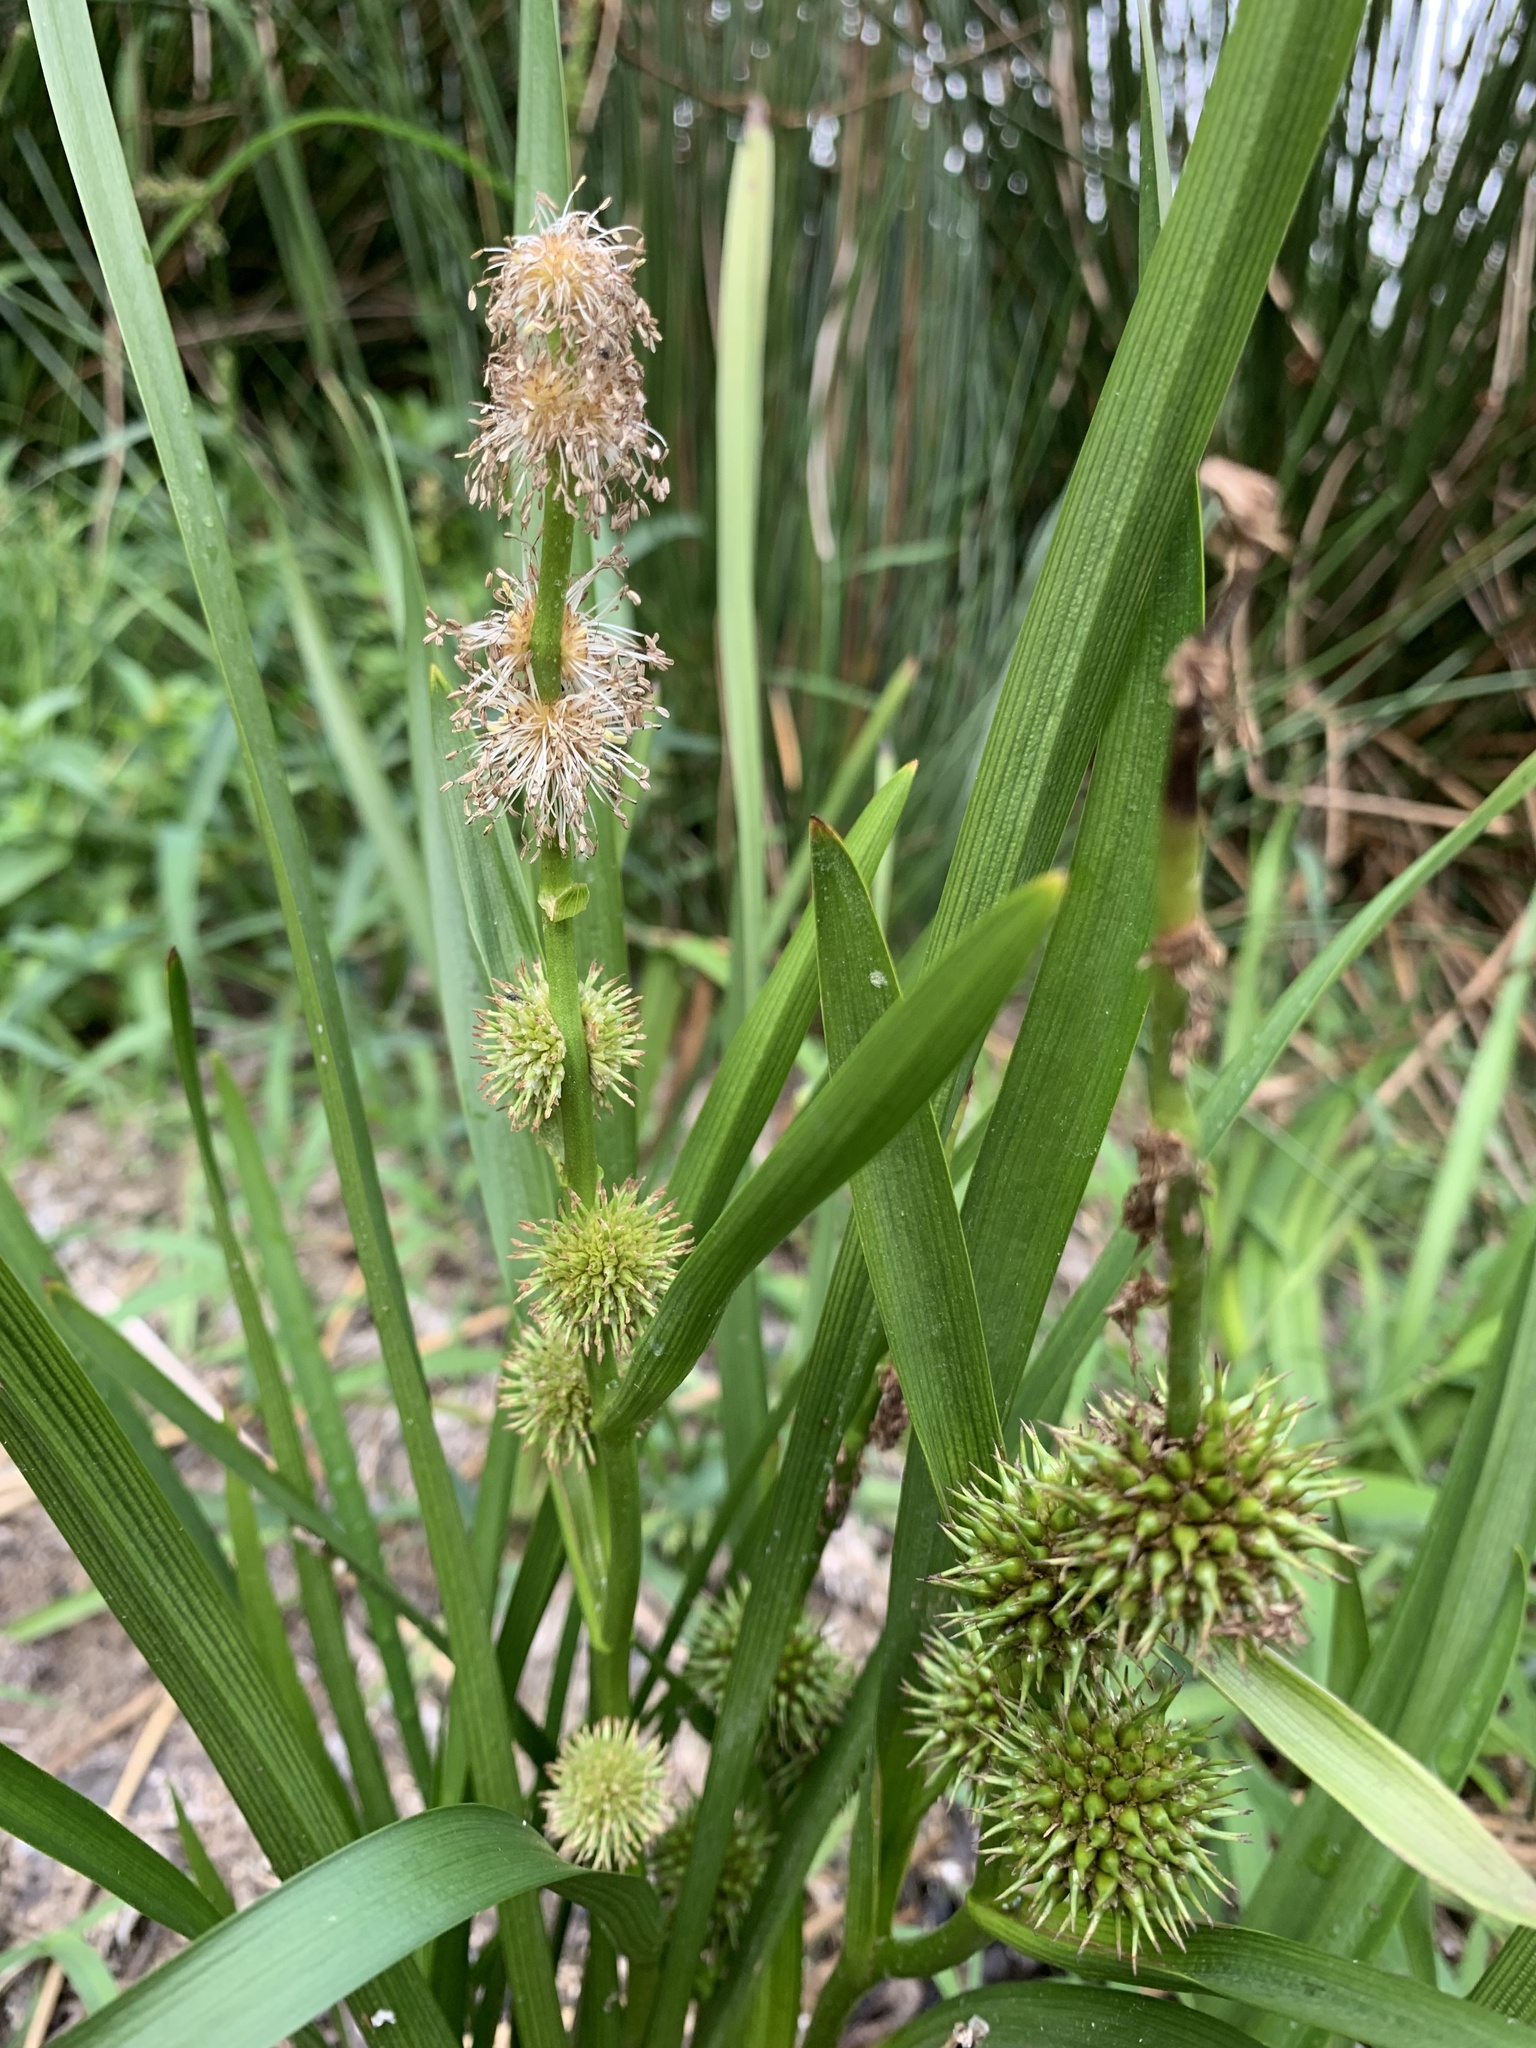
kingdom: Plantae
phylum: Tracheophyta
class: Liliopsida
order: Poales
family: Typhaceae
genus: Sparganium
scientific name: Sparganium emersum
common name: Unbranched bur-reed
